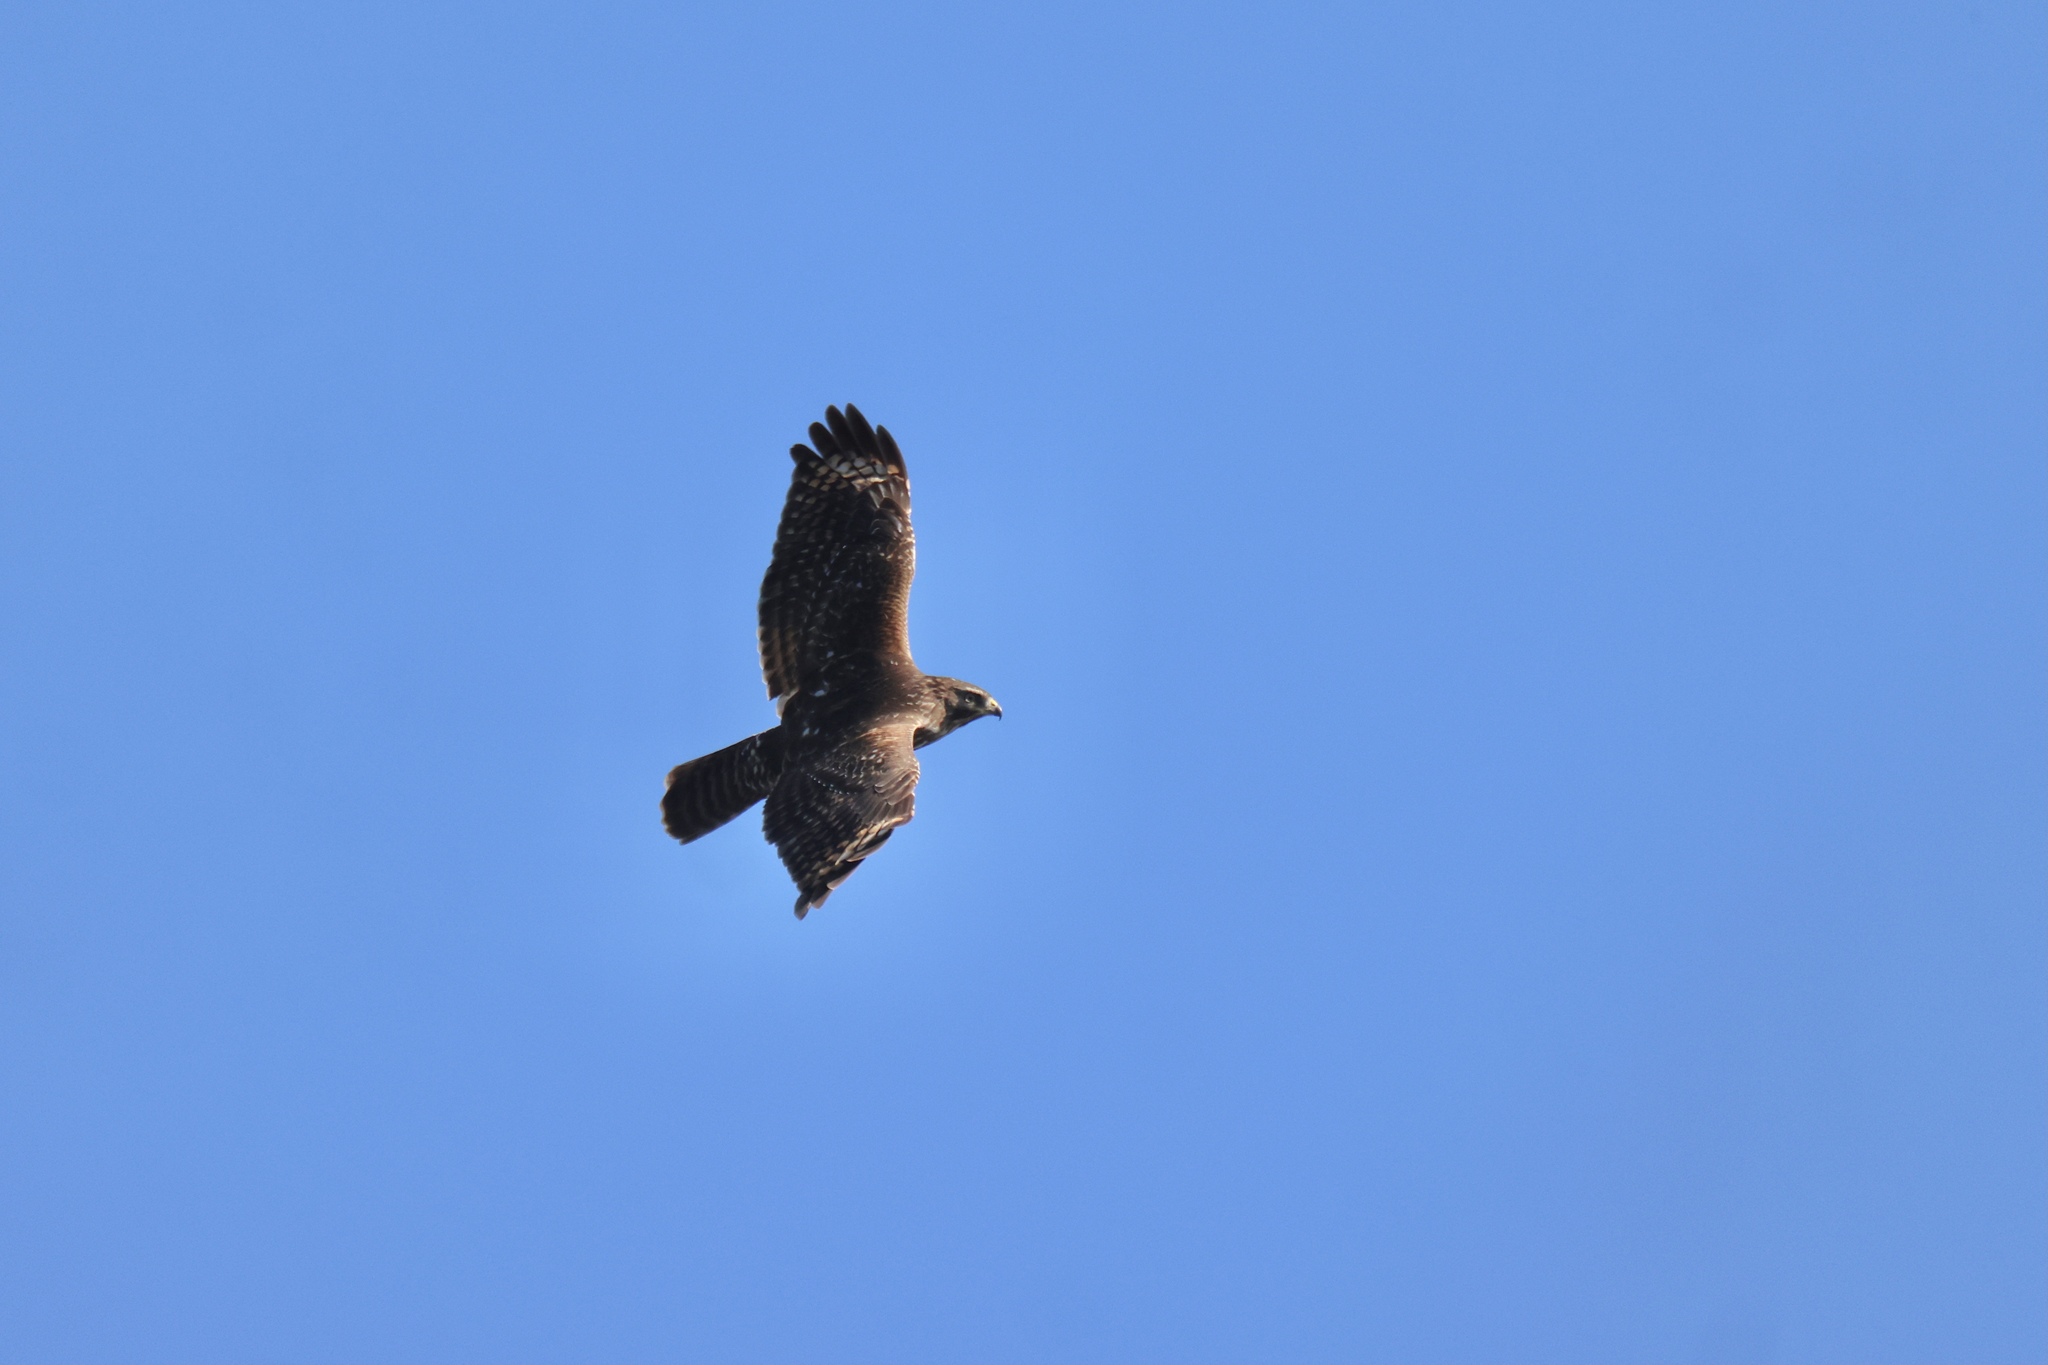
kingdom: Animalia
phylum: Chordata
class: Aves
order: Accipitriformes
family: Accipitridae
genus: Buteo
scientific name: Buteo lineatus
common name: Red-shouldered hawk
